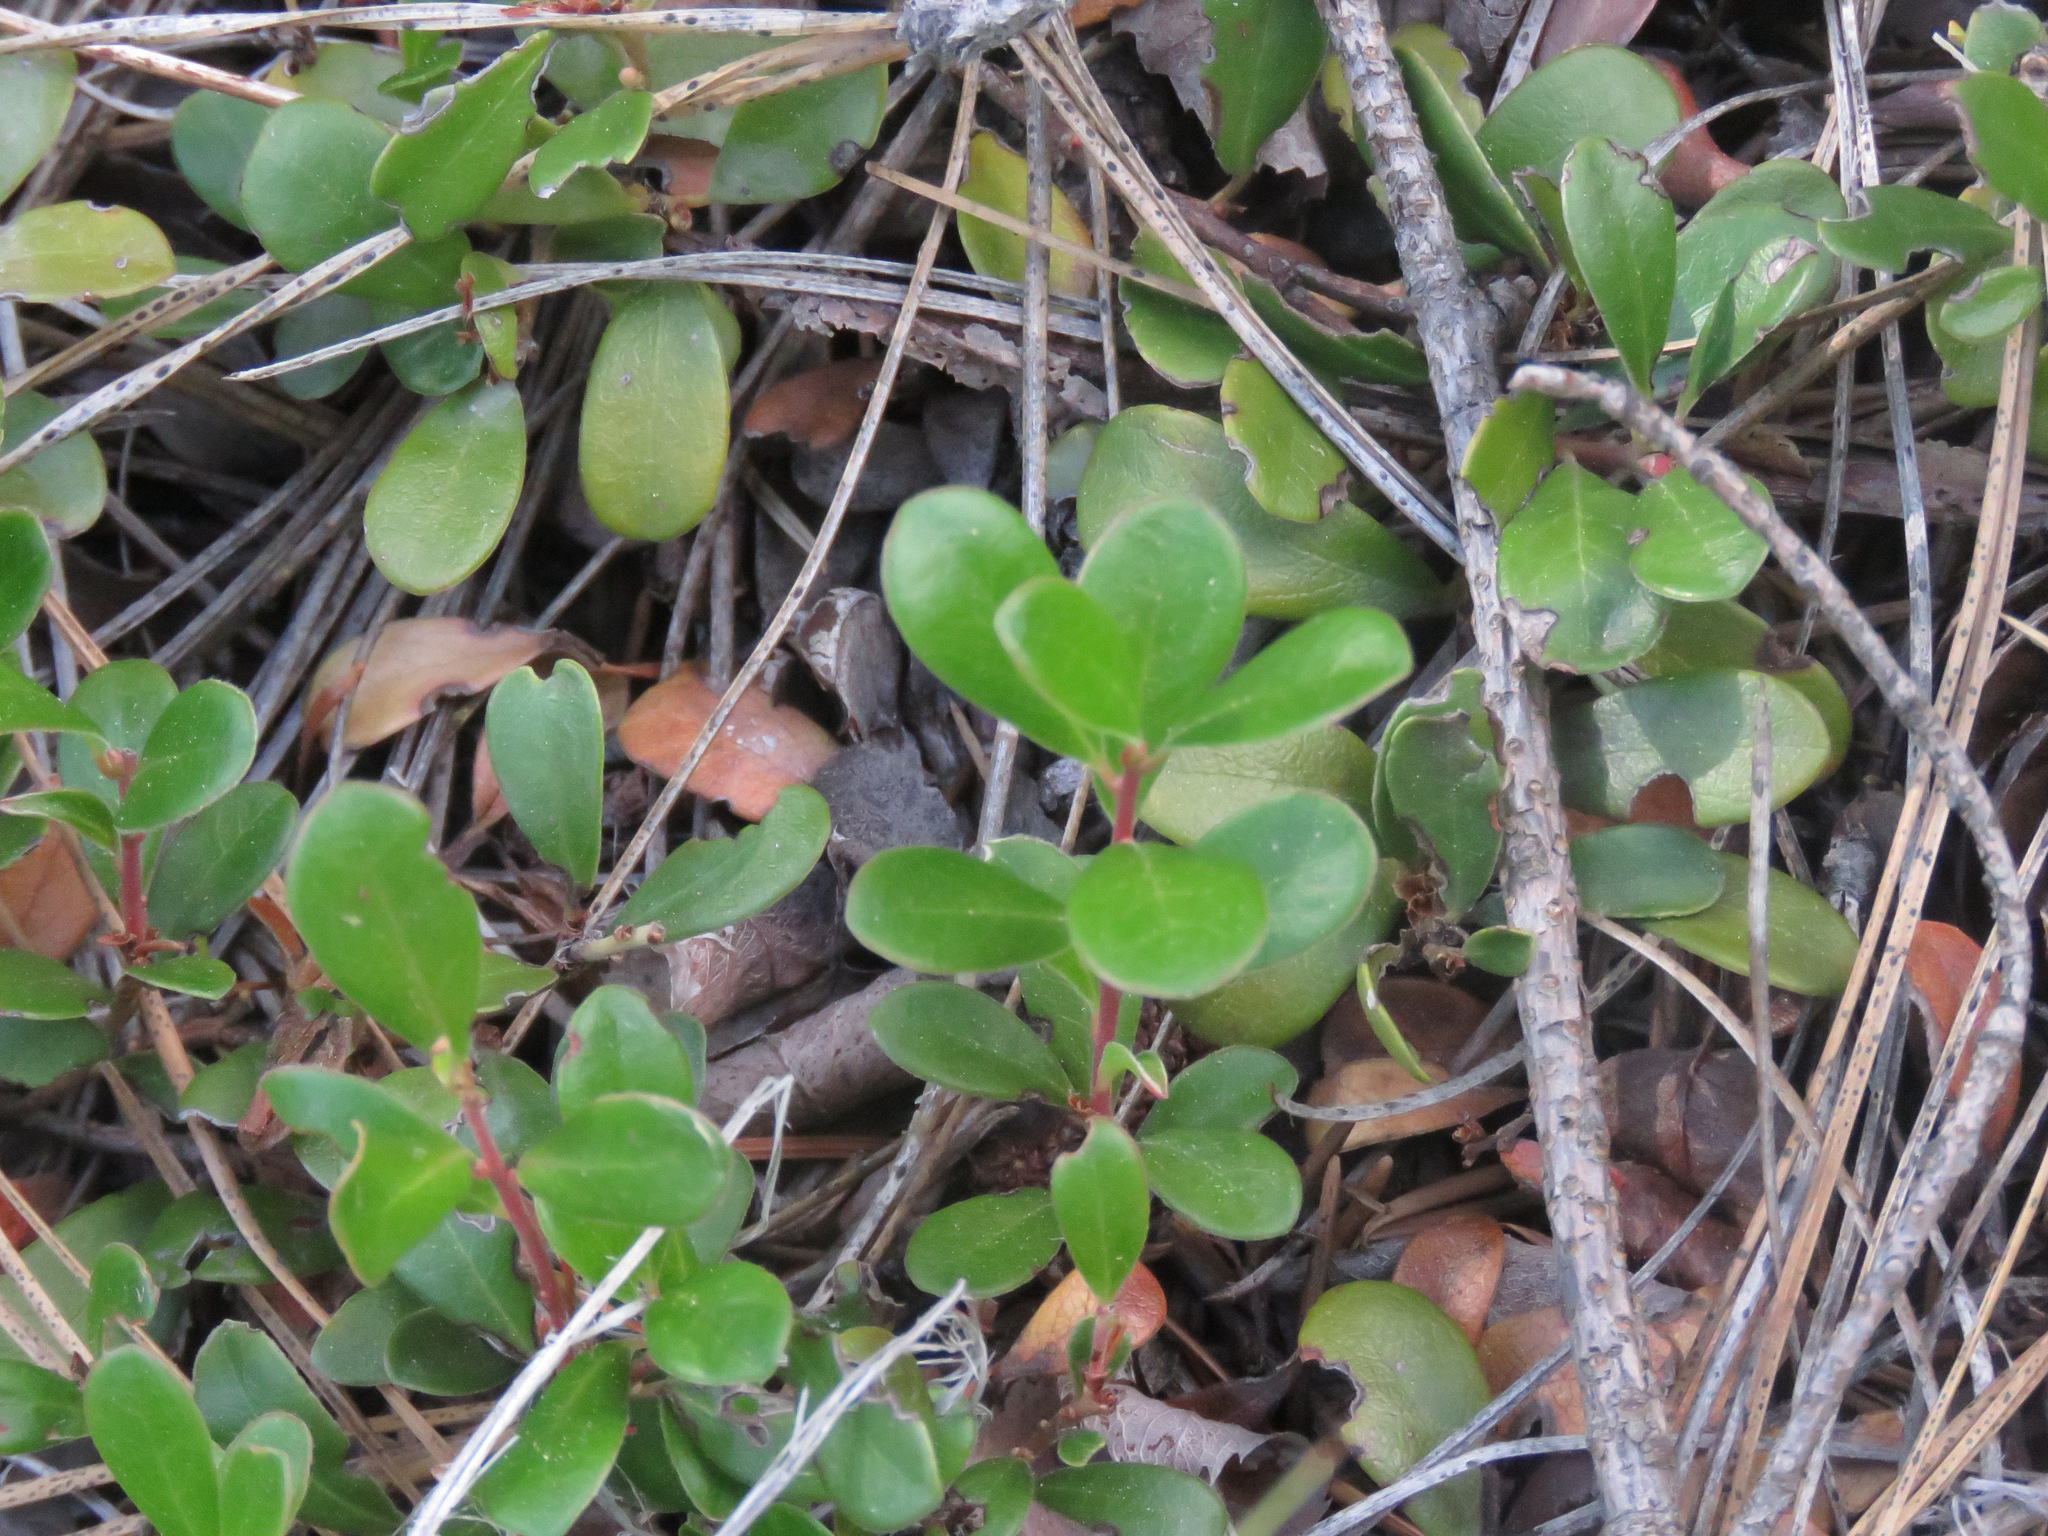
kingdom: Plantae
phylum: Tracheophyta
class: Magnoliopsida
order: Ericales
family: Ericaceae
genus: Arctostaphylos
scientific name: Arctostaphylos uva-ursi
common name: Bearberry
